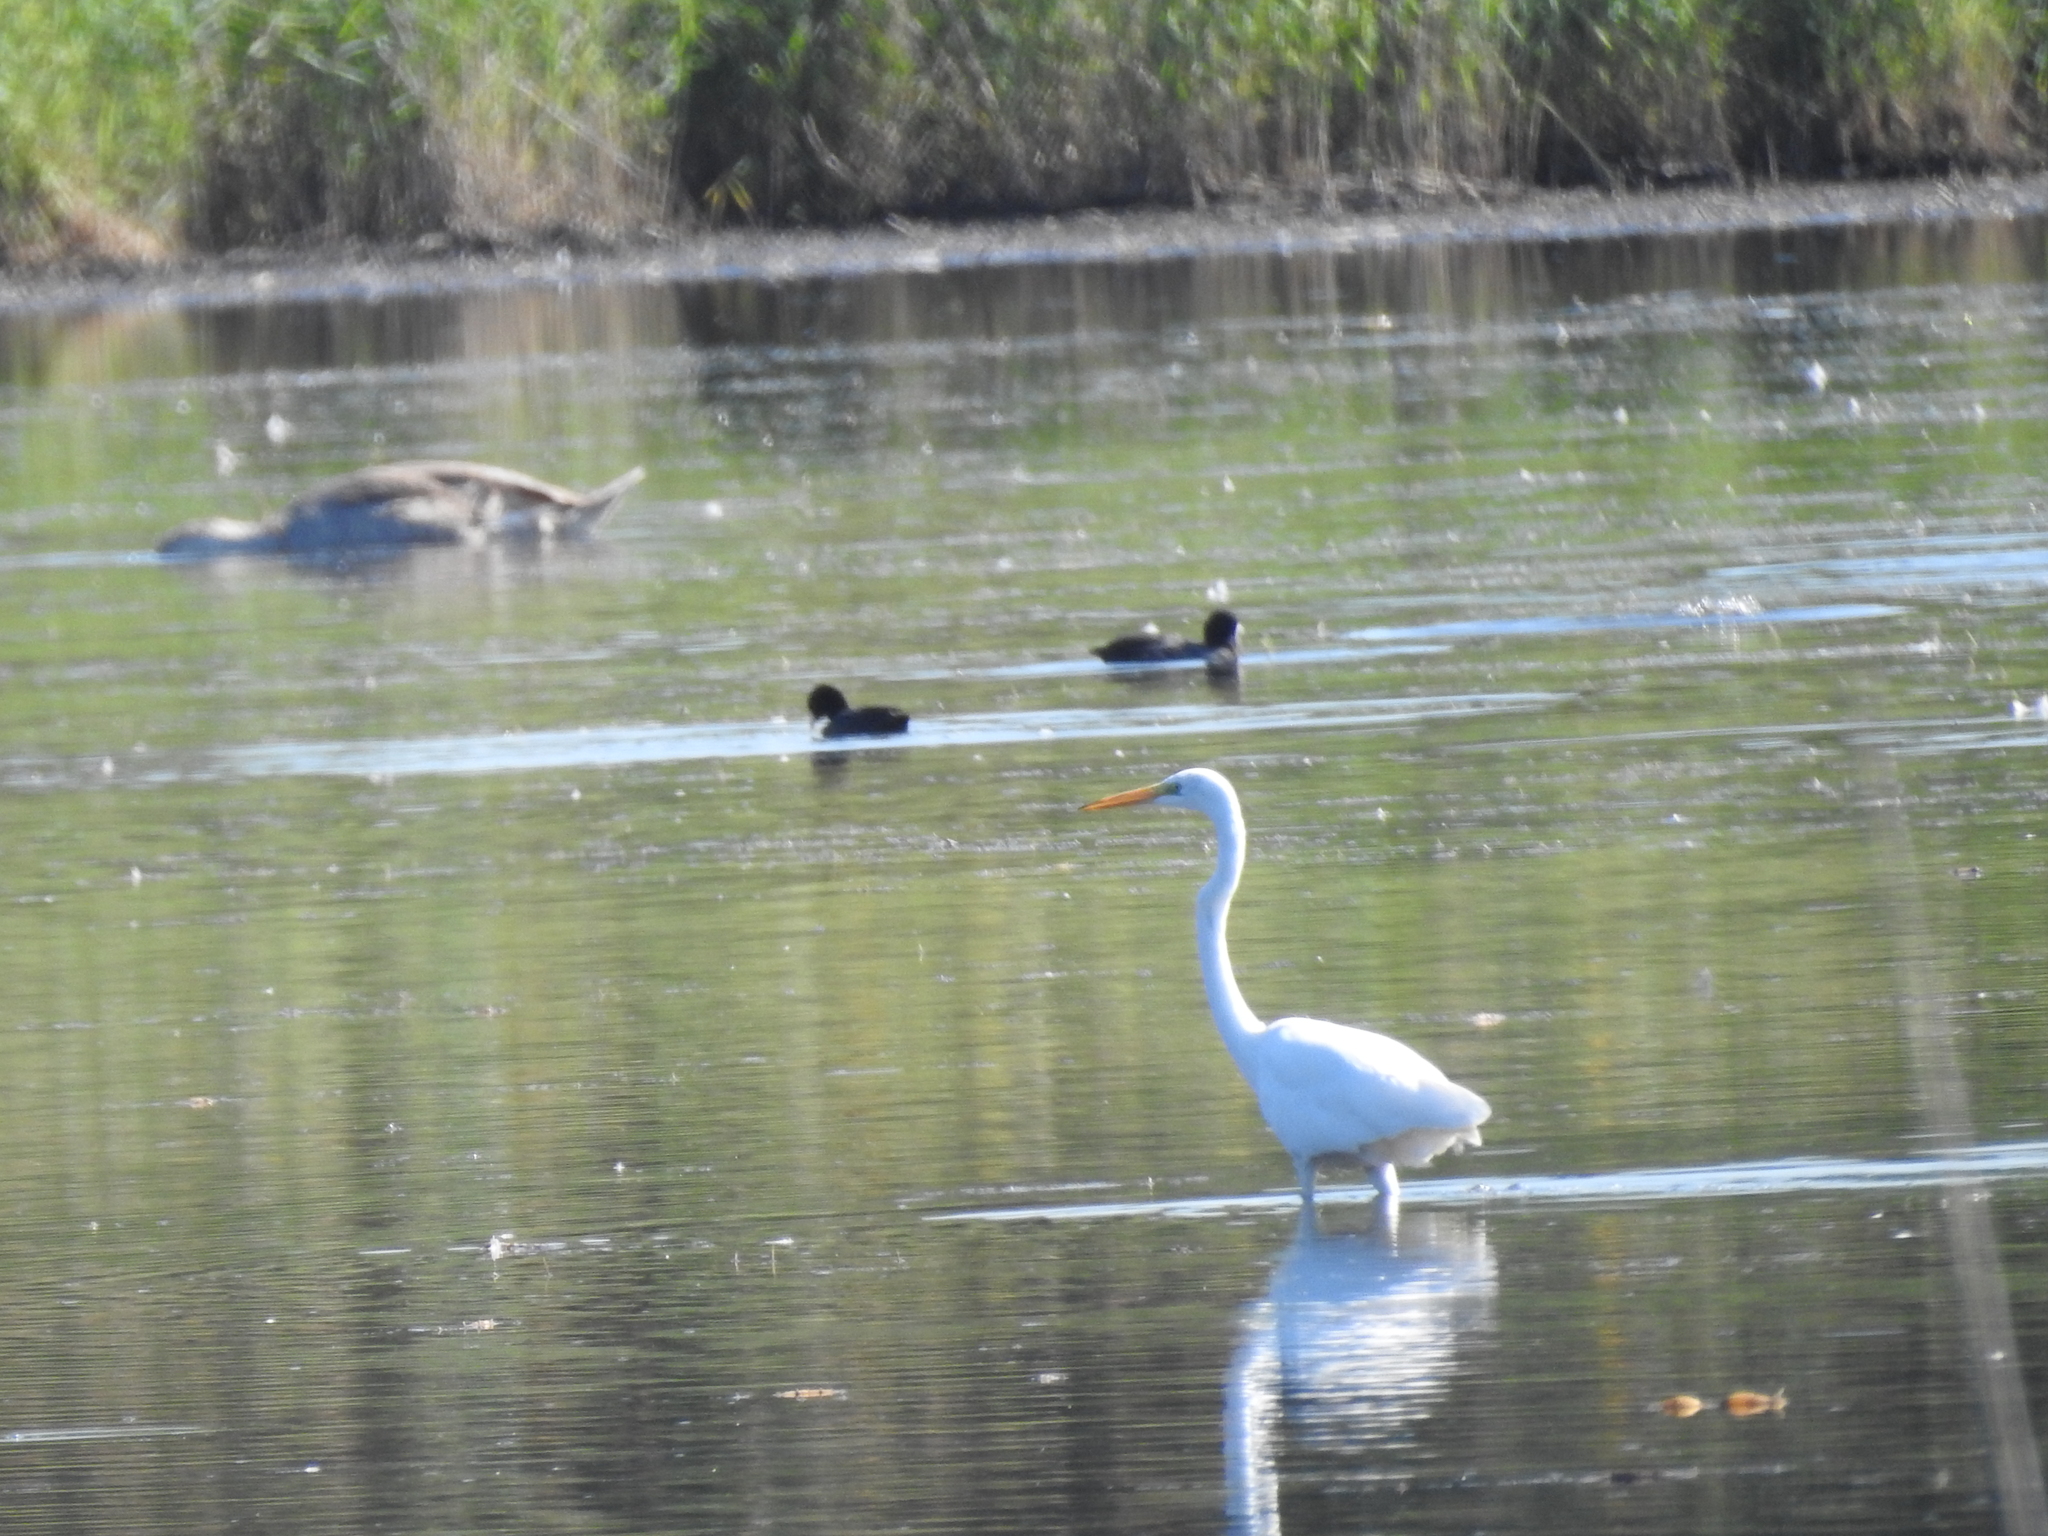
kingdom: Animalia
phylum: Chordata
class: Aves
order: Pelecaniformes
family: Ardeidae
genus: Ardea
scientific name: Ardea alba
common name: Great egret
